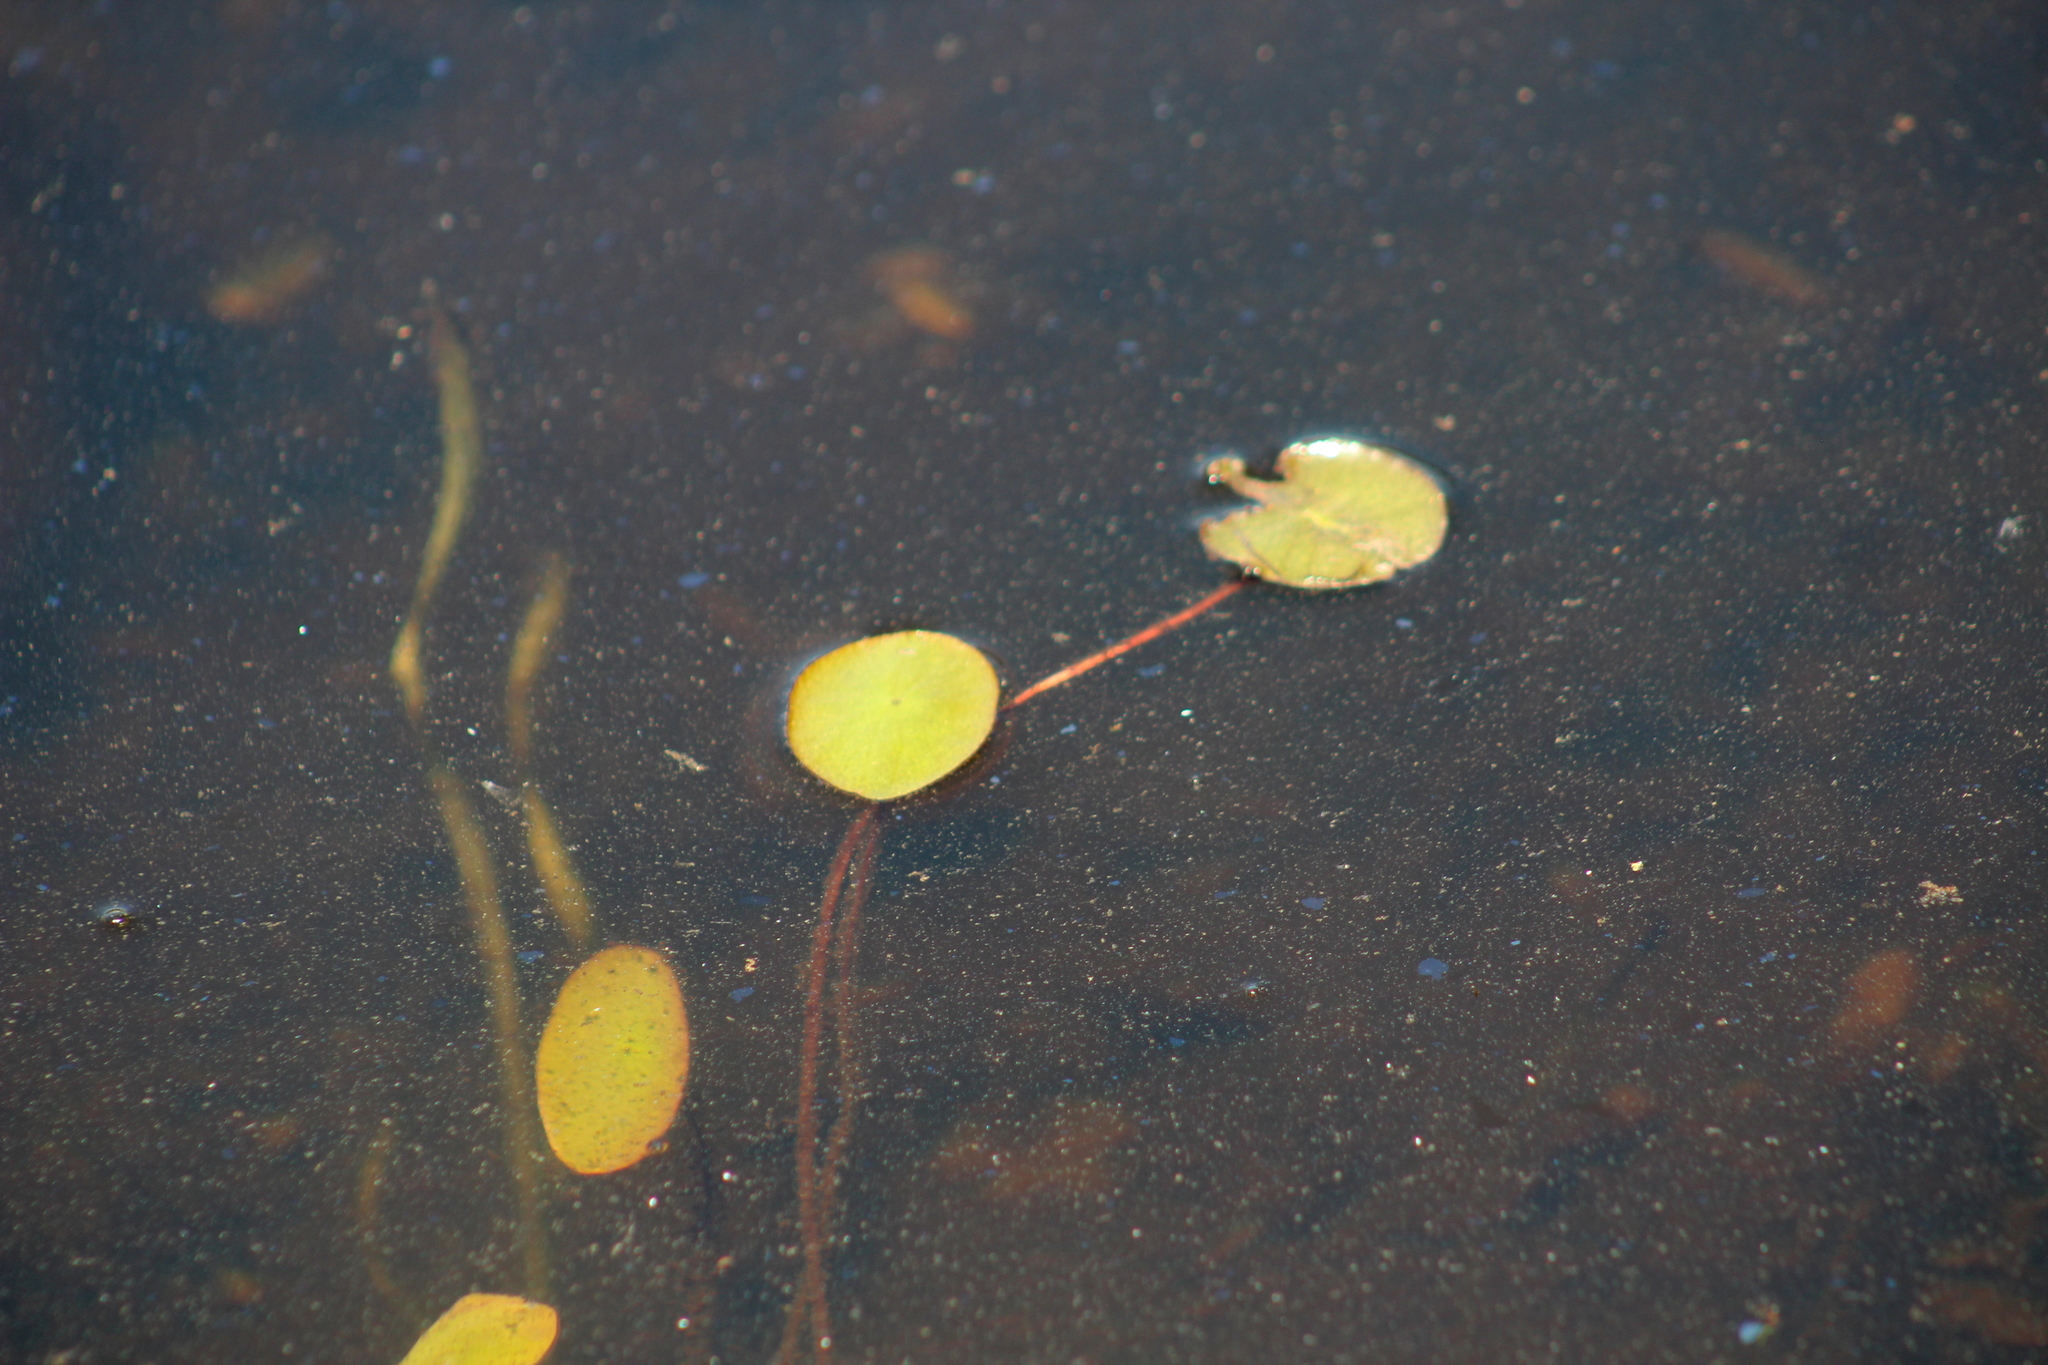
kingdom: Plantae
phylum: Tracheophyta
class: Magnoliopsida
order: Nymphaeales
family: Cabombaceae
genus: Brasenia
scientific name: Brasenia schreberi
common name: Water-shield
